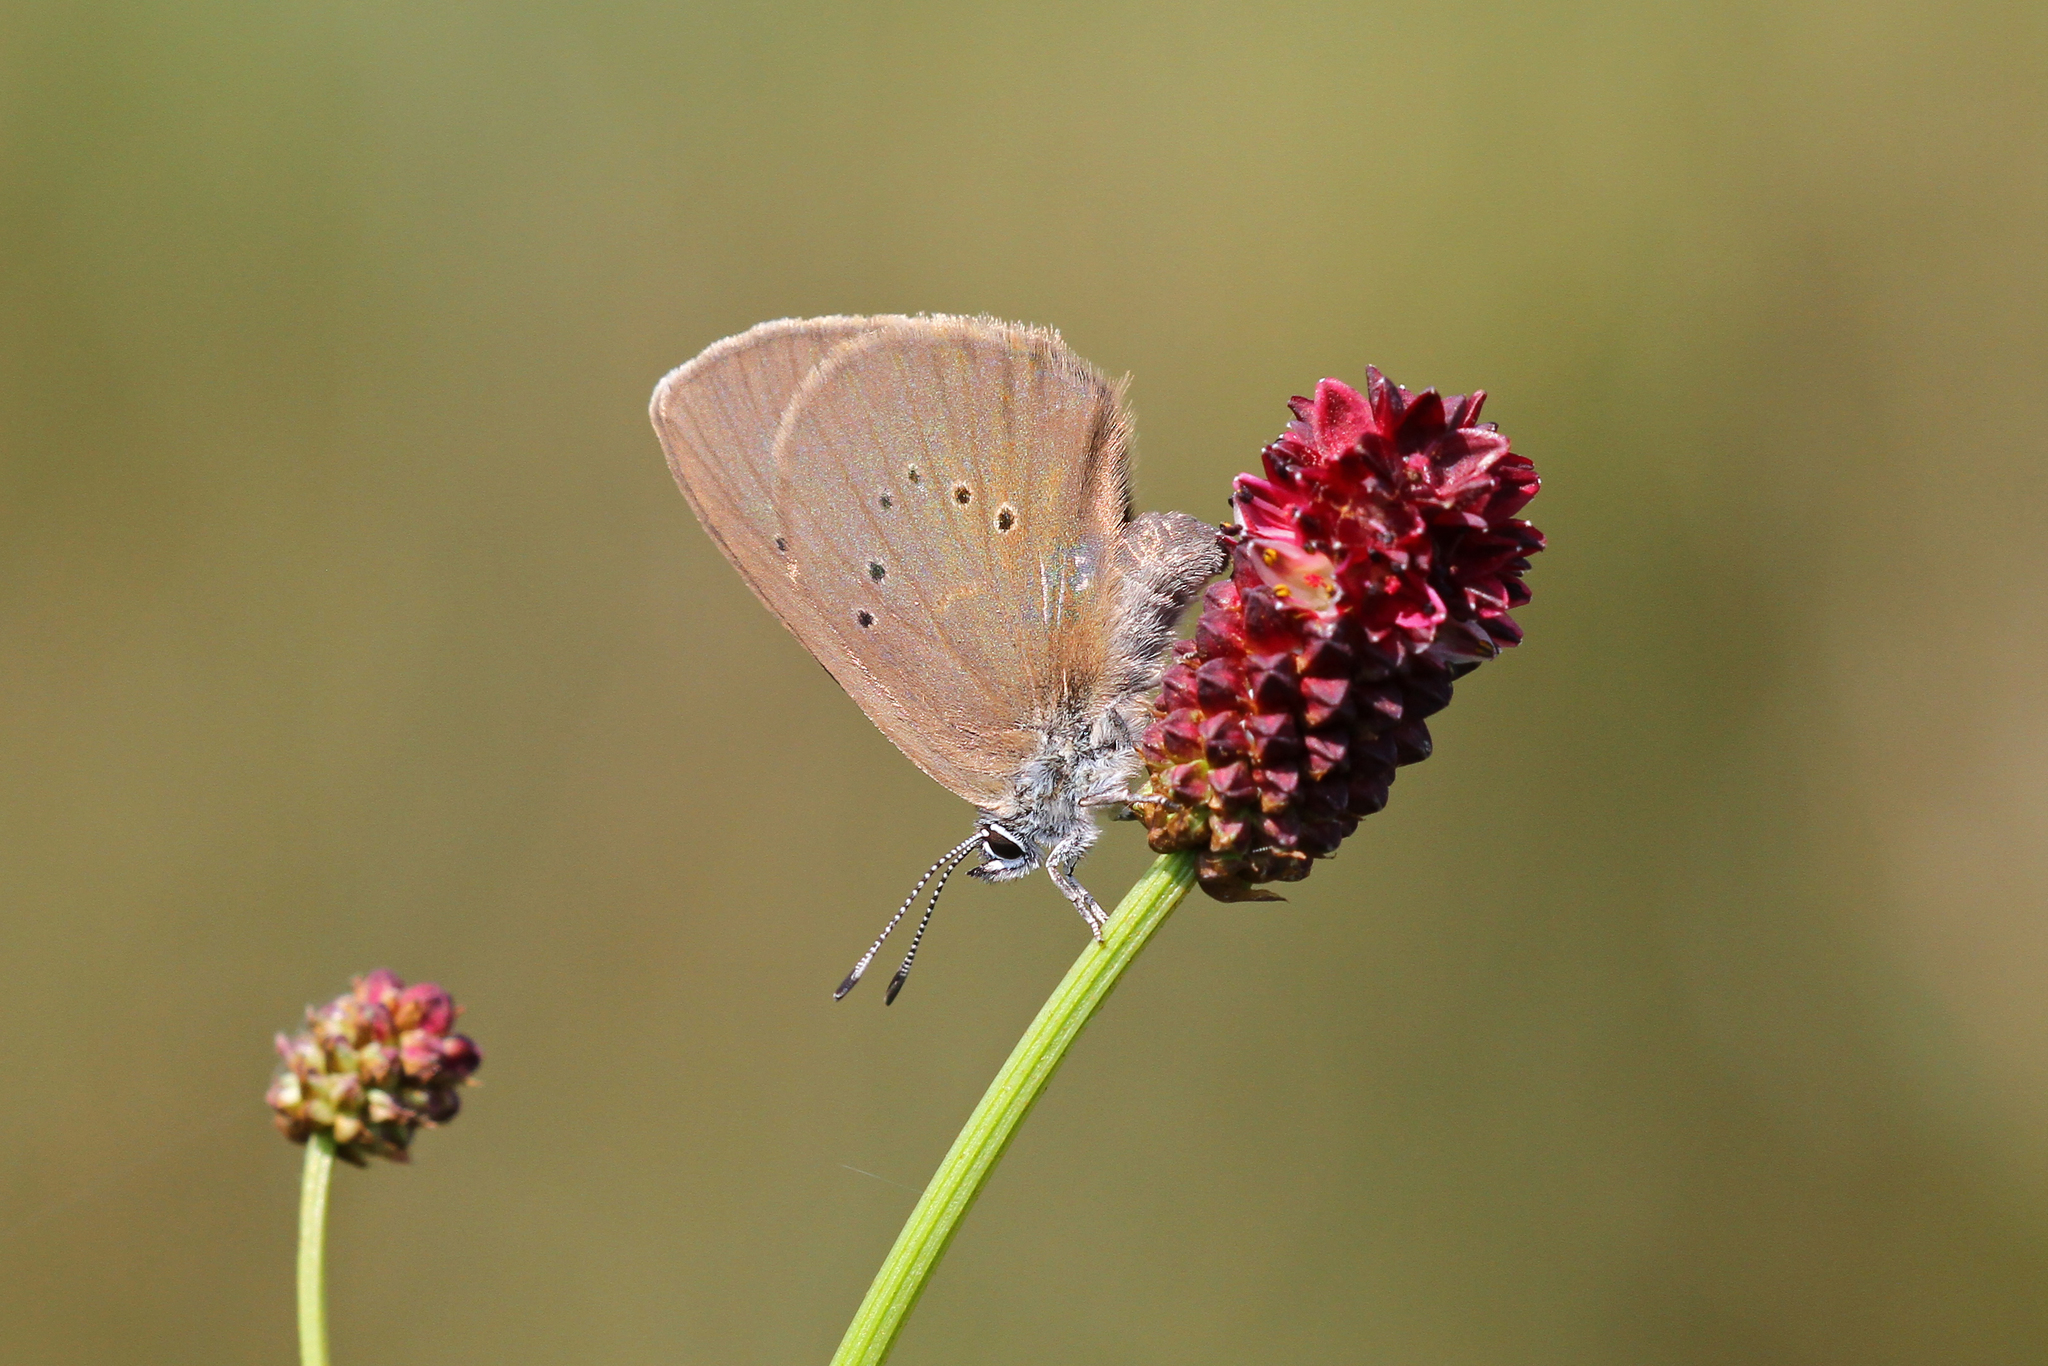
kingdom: Animalia
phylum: Arthropoda
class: Insecta
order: Lepidoptera
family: Lycaenidae
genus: Maculinea
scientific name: Maculinea nausithous
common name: Dusky large blue
